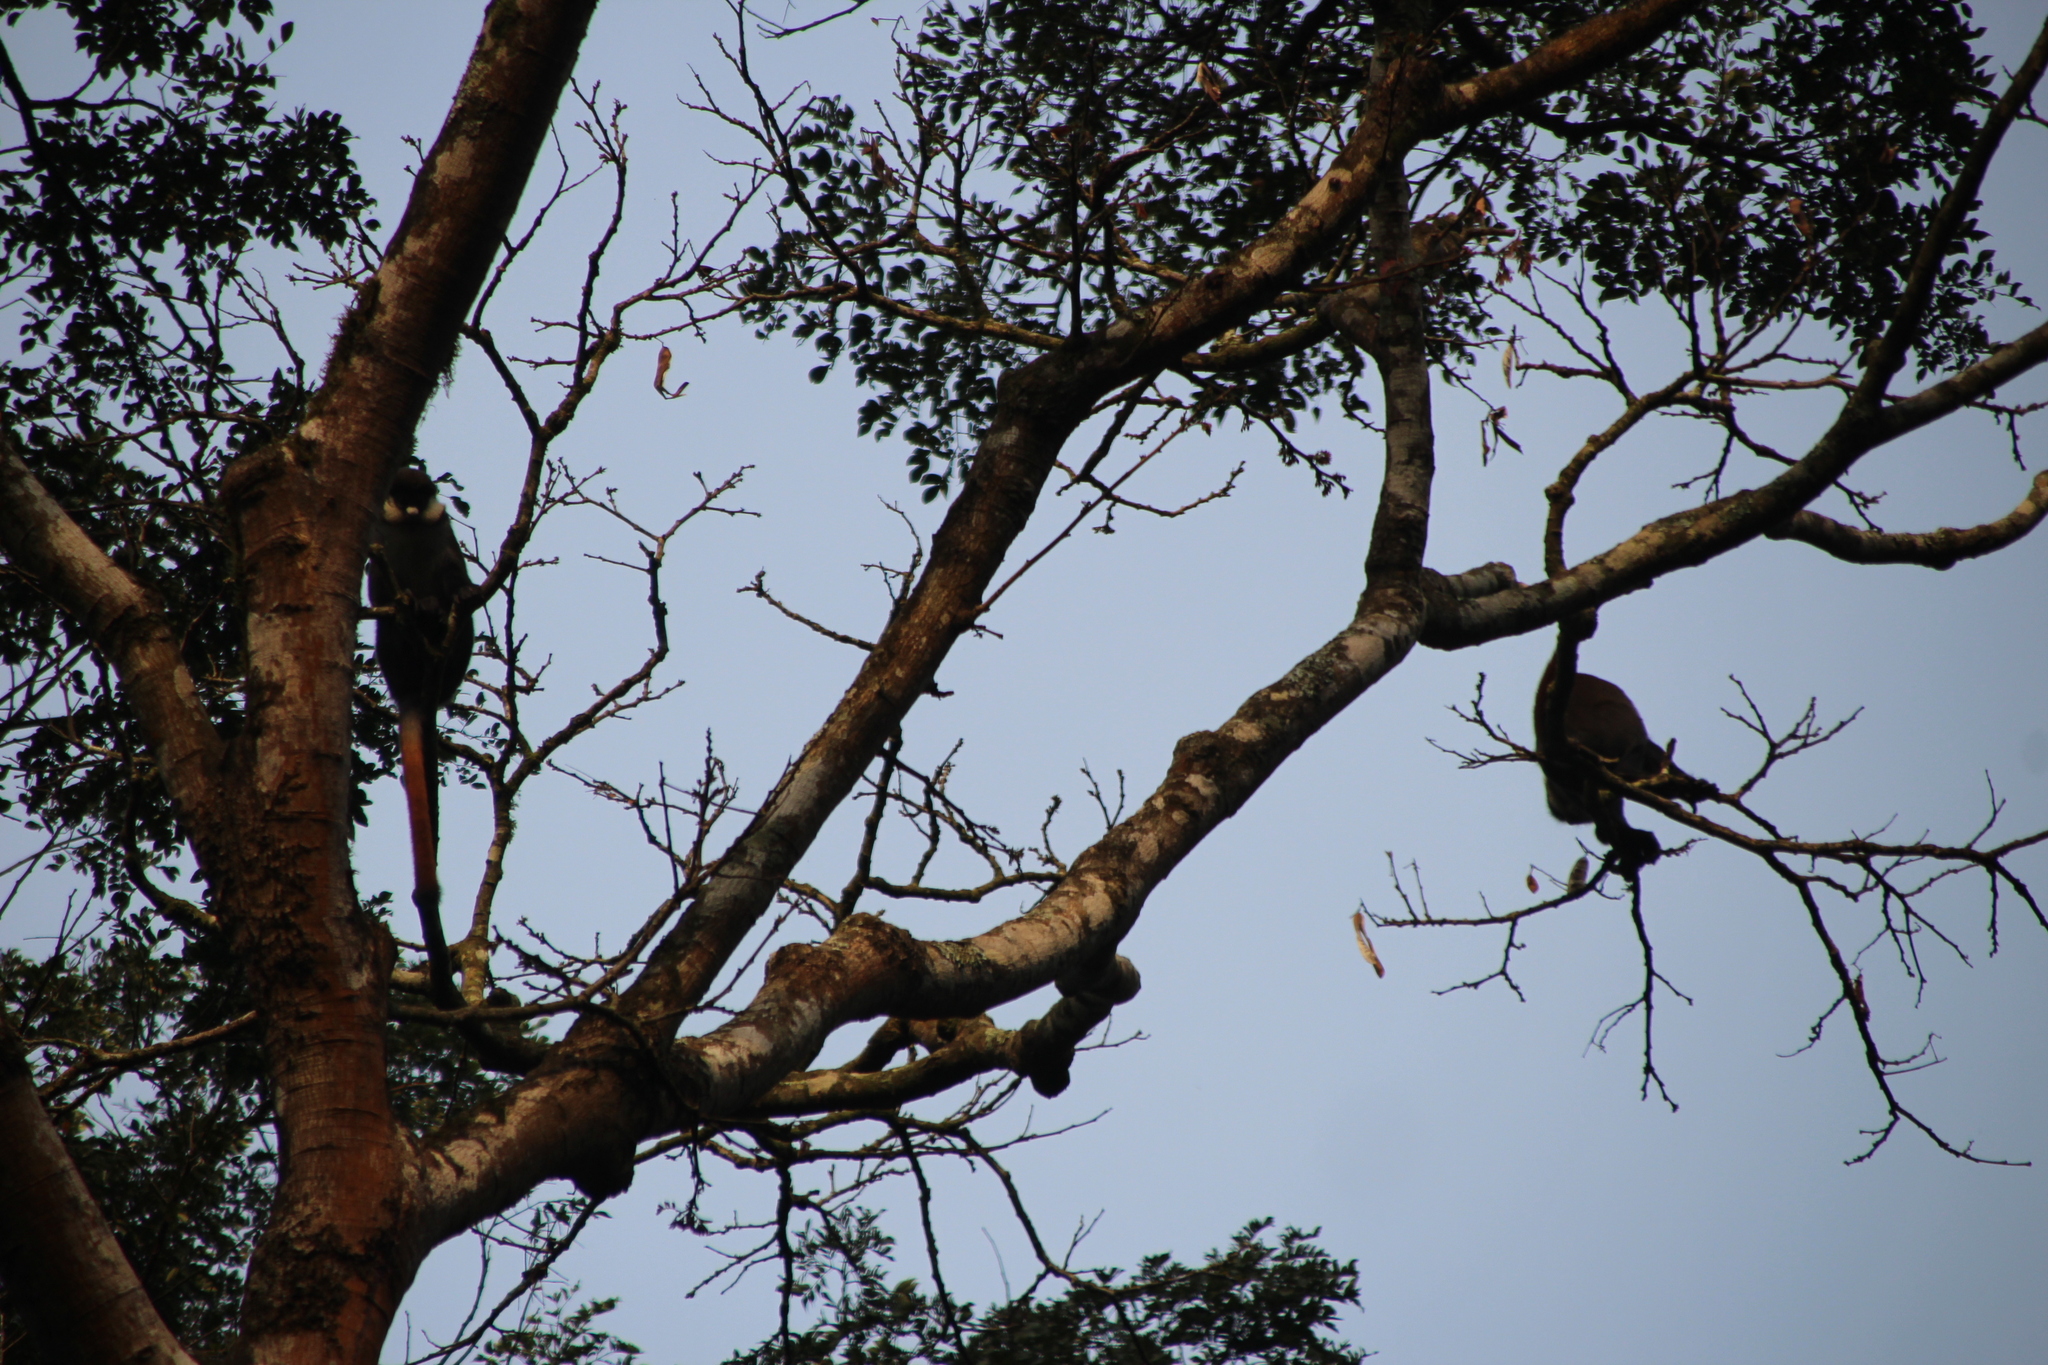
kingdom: Animalia
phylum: Chordata
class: Mammalia
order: Primates
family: Cercopithecidae
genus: Cercopithecus
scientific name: Cercopithecus ascanius
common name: Red-tailed monkey
